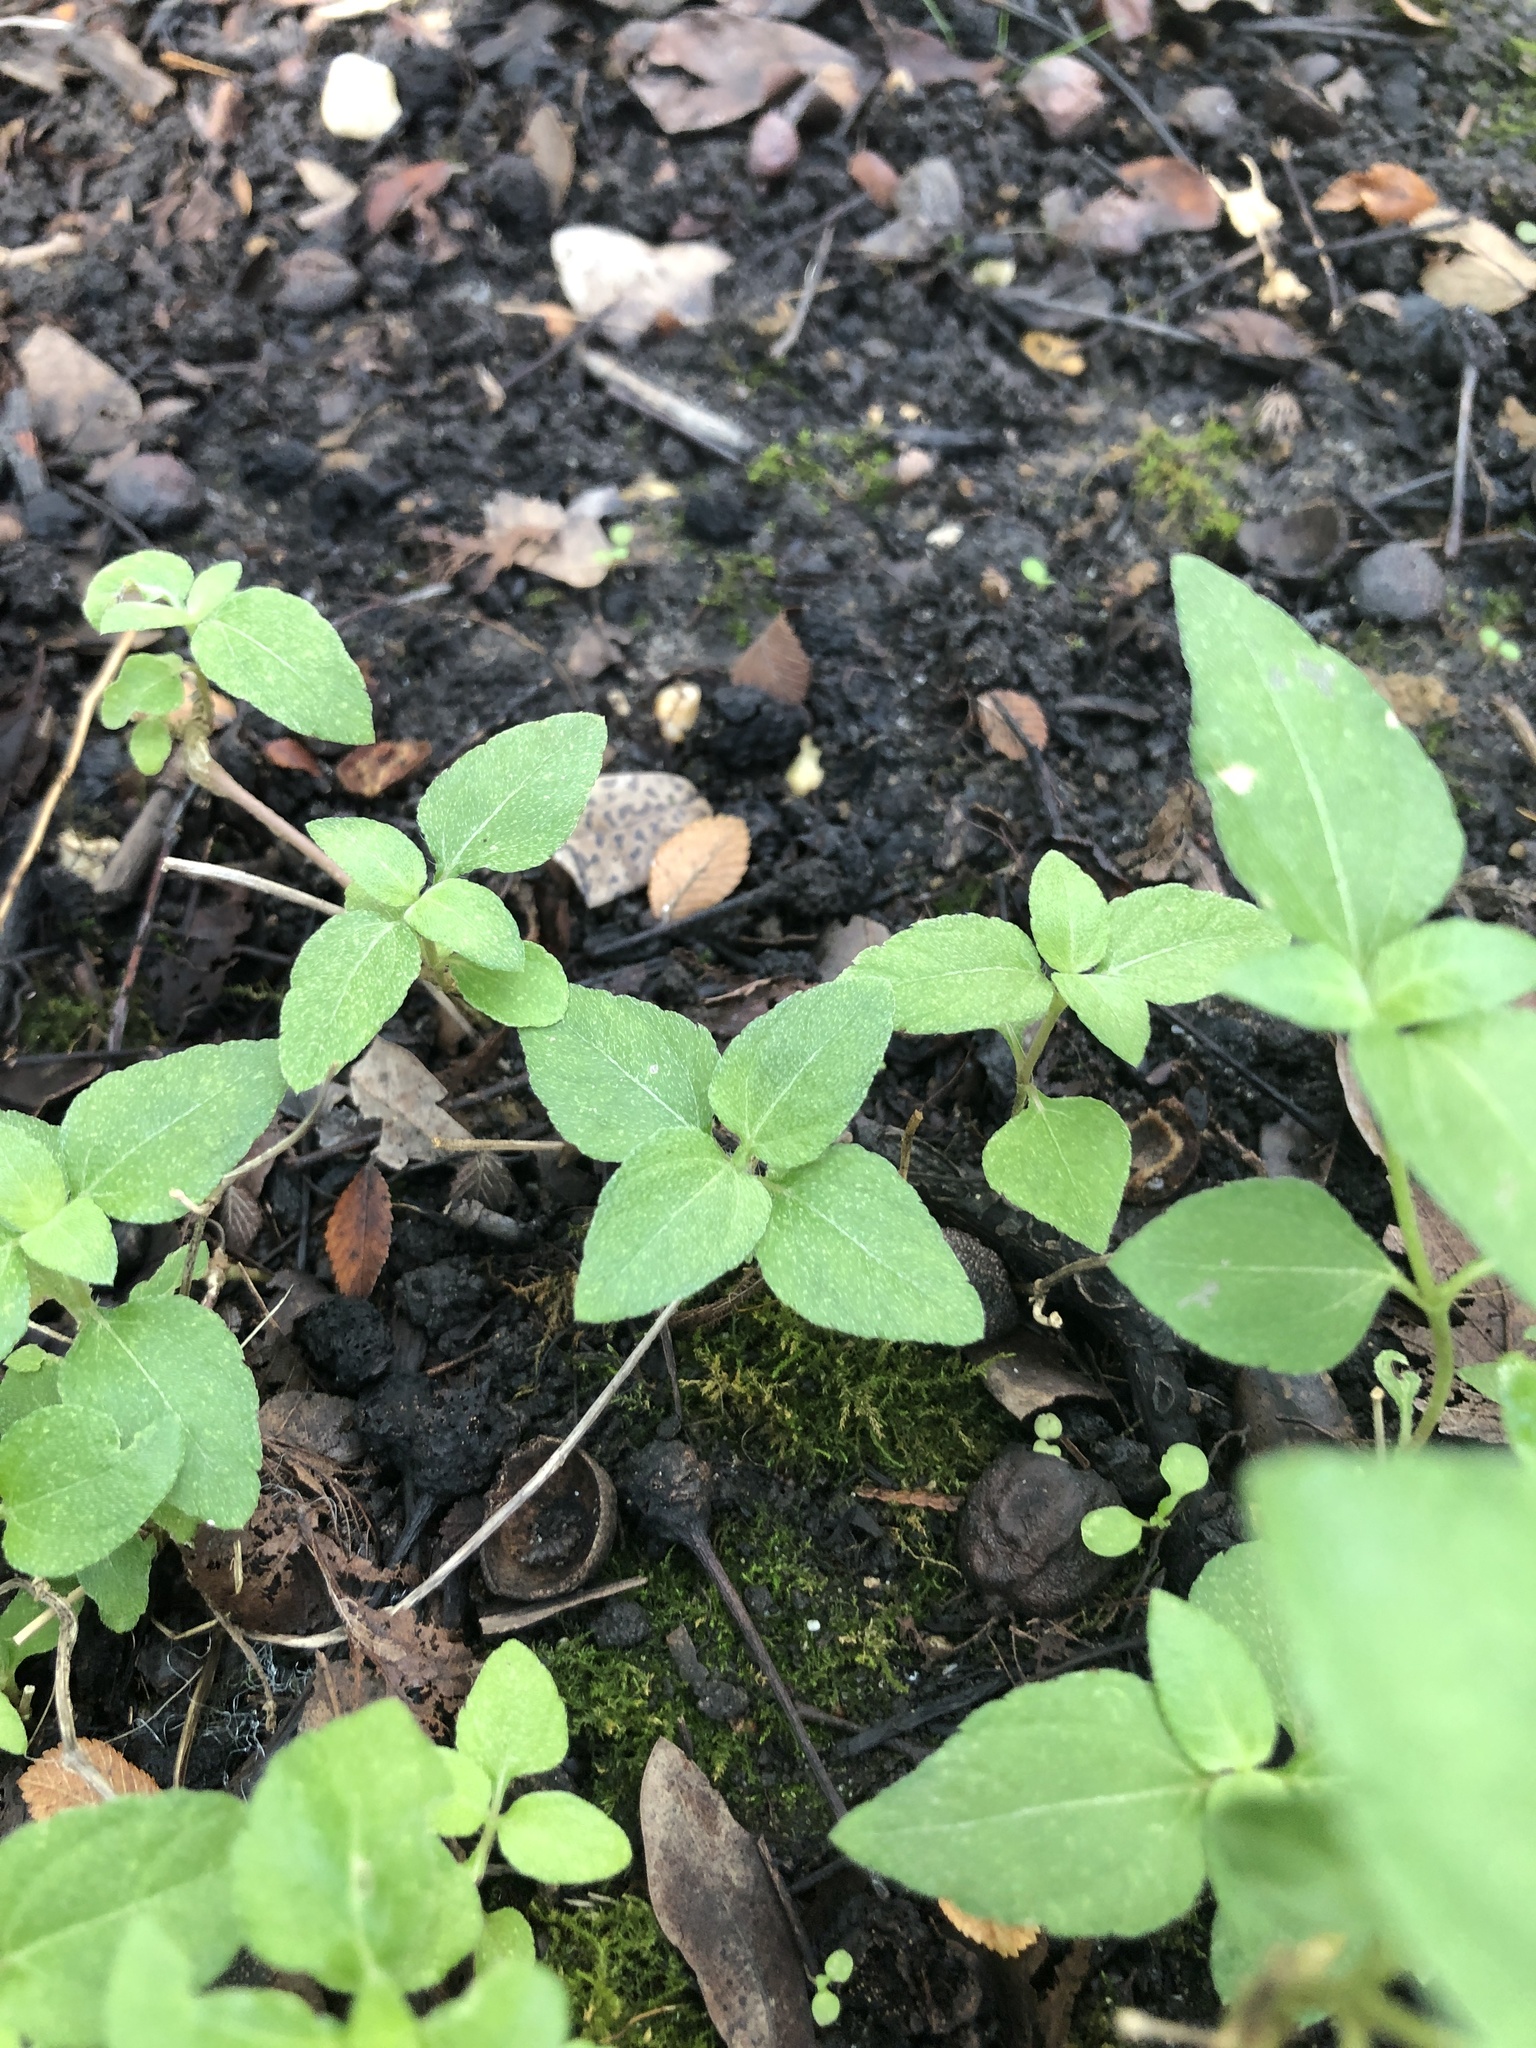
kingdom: Plantae
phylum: Tracheophyta
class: Magnoliopsida
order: Asterales
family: Asteraceae
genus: Calyptocarpus
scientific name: Calyptocarpus vialis
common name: Straggler daisy
